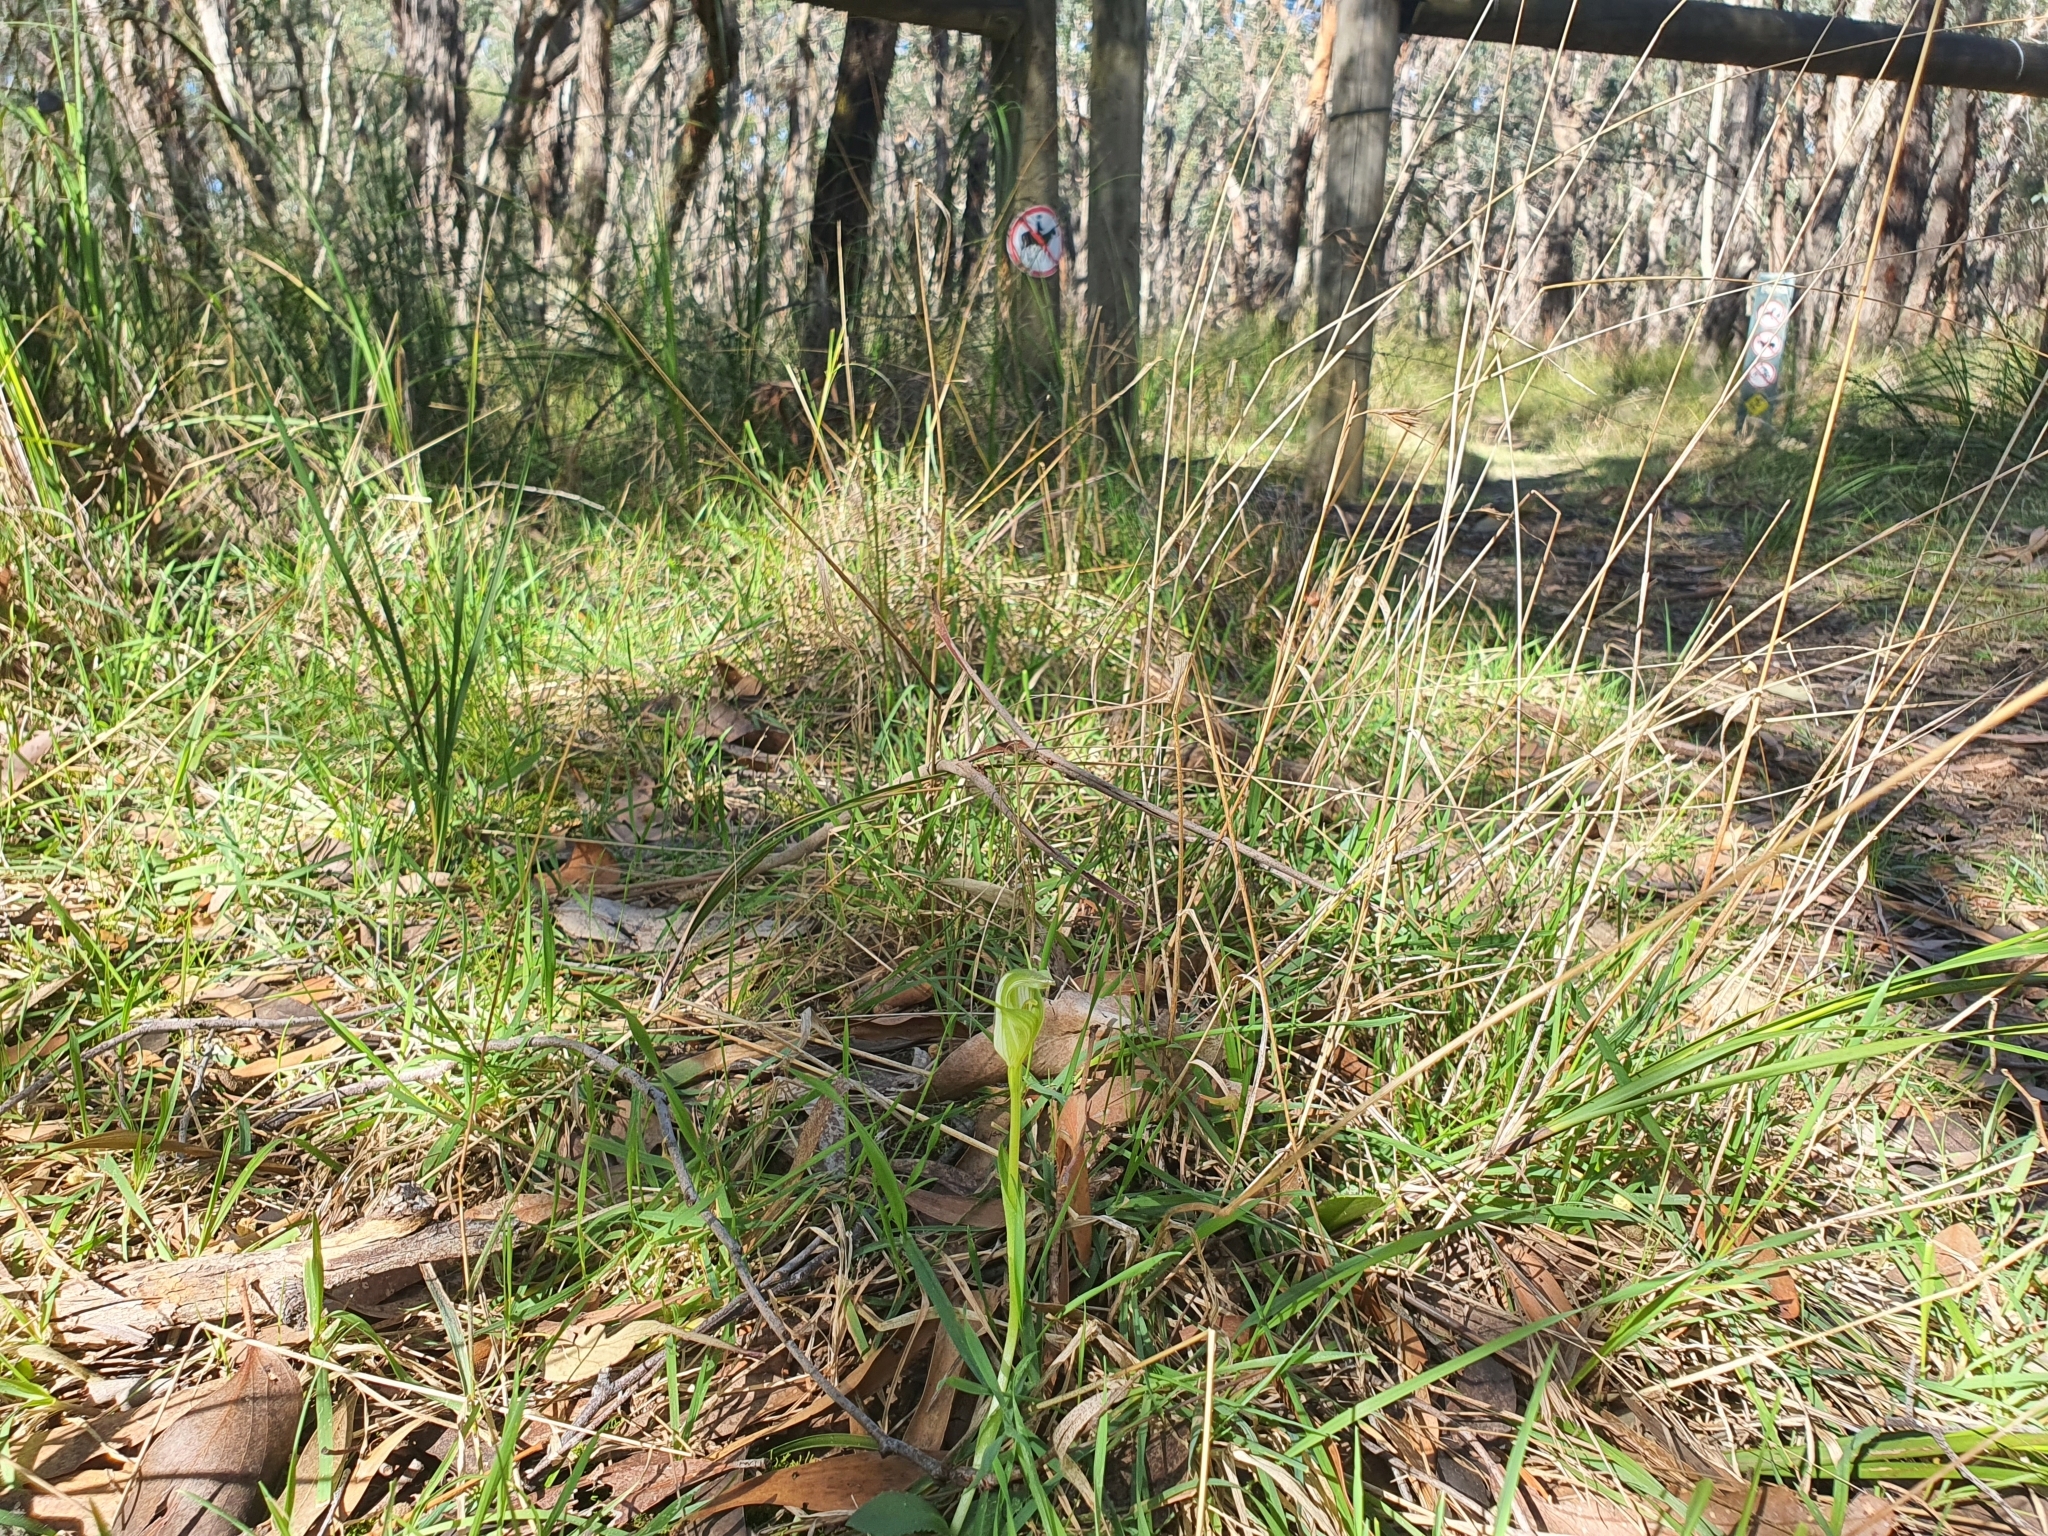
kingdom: Plantae
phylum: Tracheophyta
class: Liliopsida
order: Asparagales
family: Orchidaceae
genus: Pterostylis
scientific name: Pterostylis alpina
